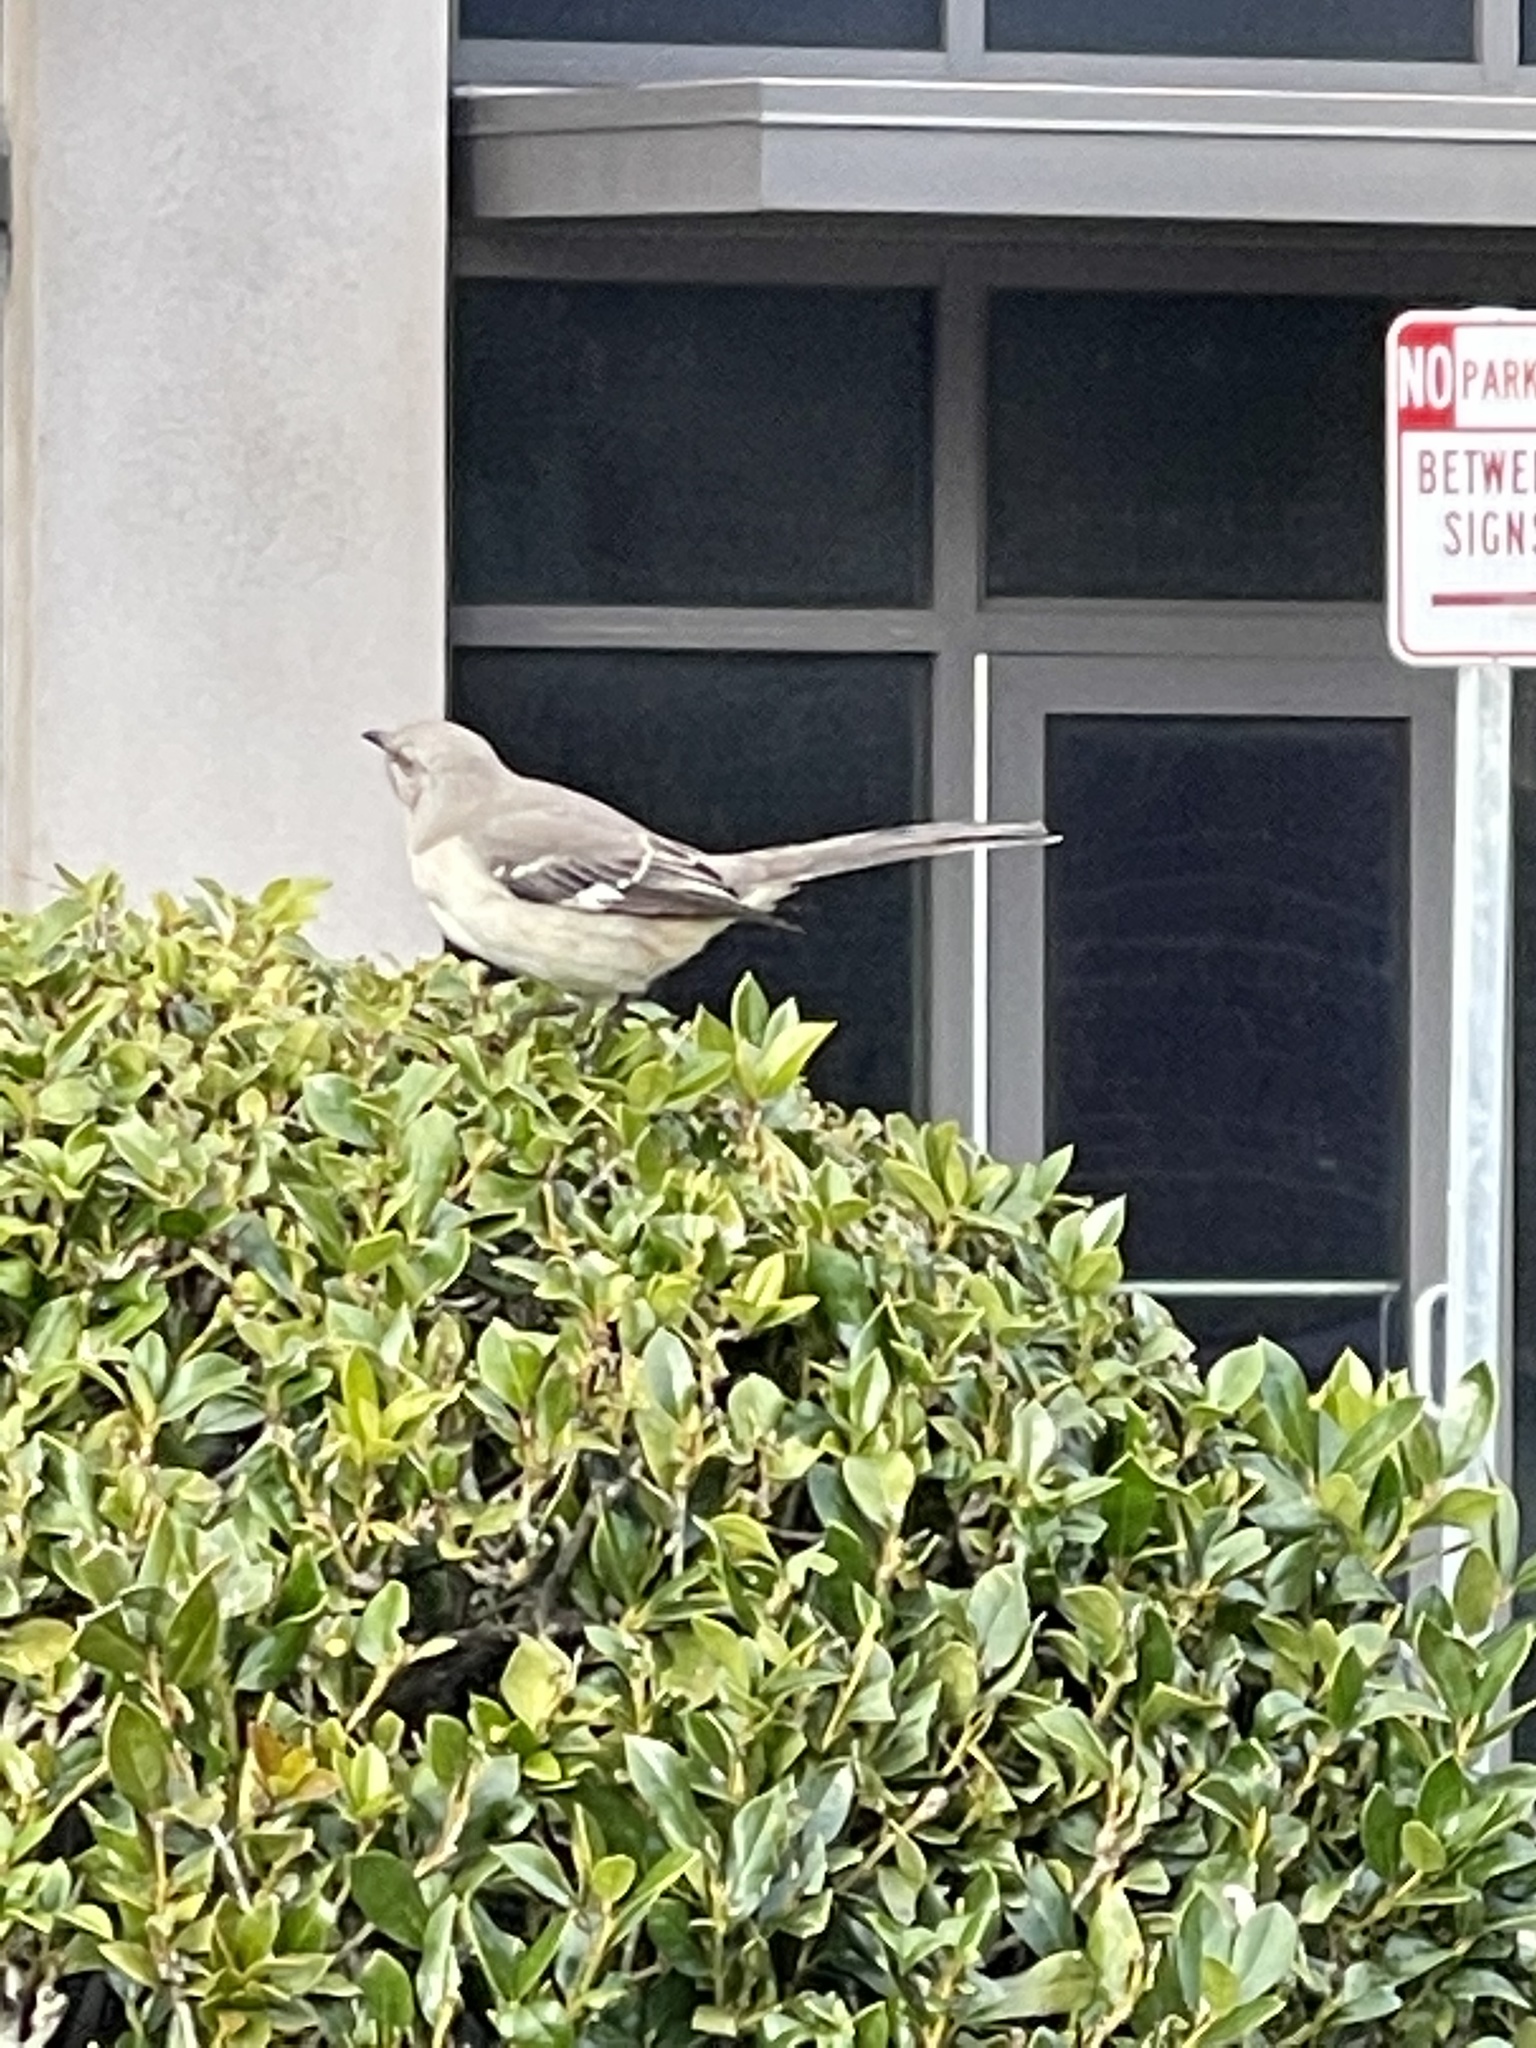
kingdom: Animalia
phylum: Chordata
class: Aves
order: Passeriformes
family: Mimidae
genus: Mimus
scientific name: Mimus polyglottos
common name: Northern mockingbird
